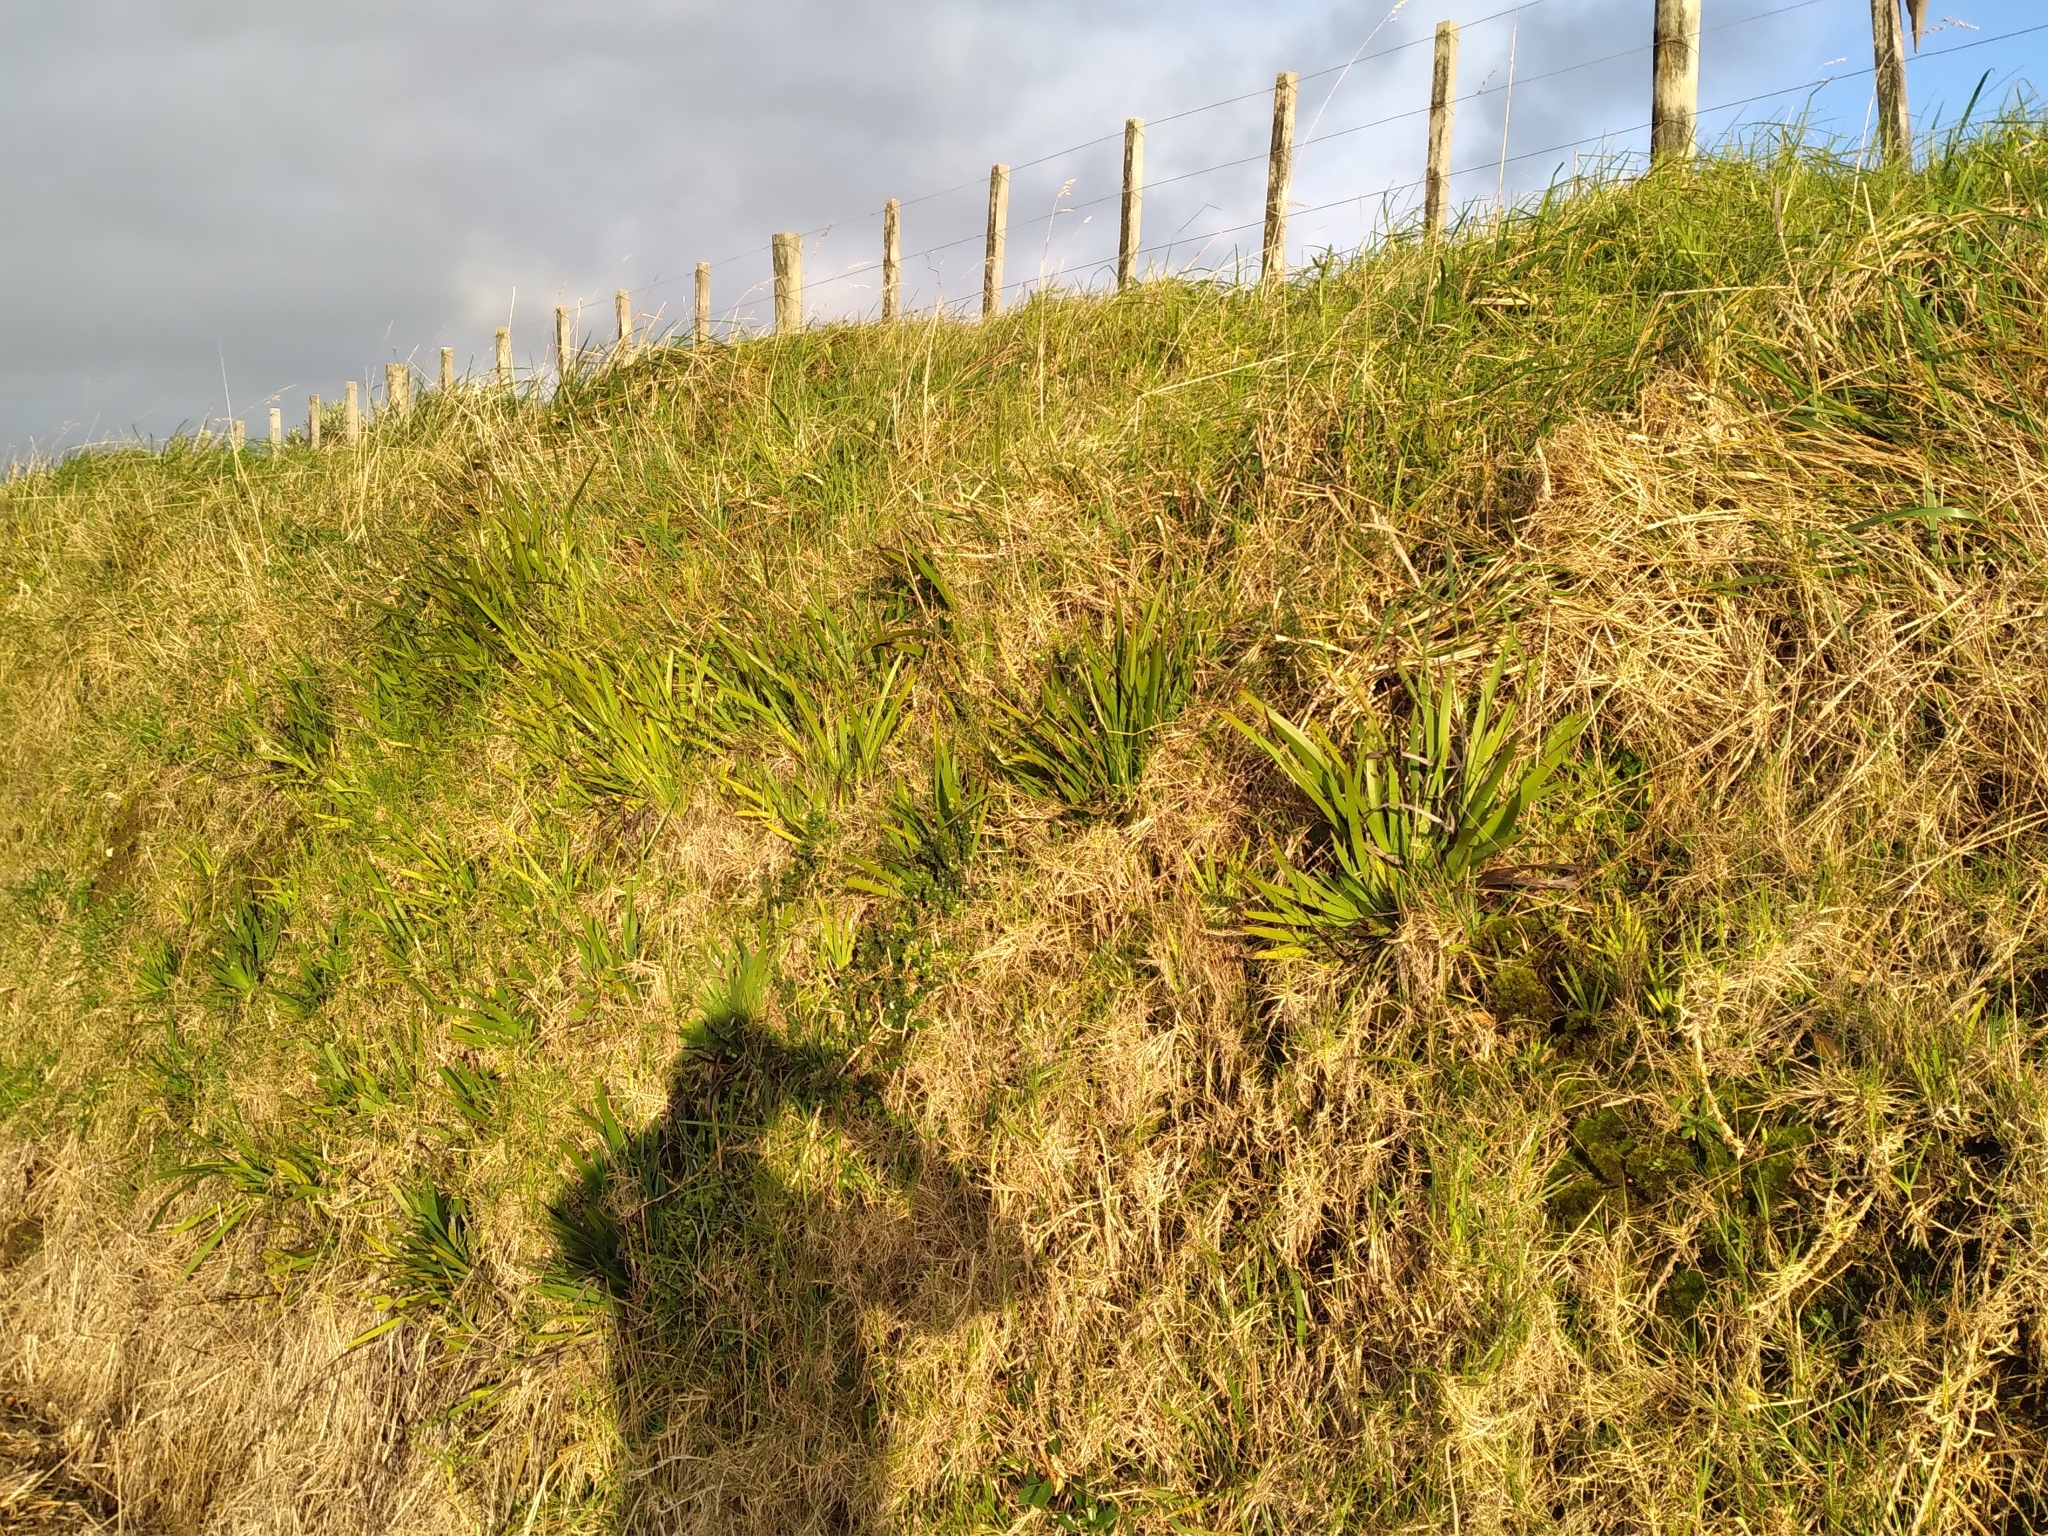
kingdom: Plantae
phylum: Tracheophyta
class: Liliopsida
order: Asparagales
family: Iridaceae
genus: Aristea
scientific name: Aristea ecklonii
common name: Blue corn-lily
